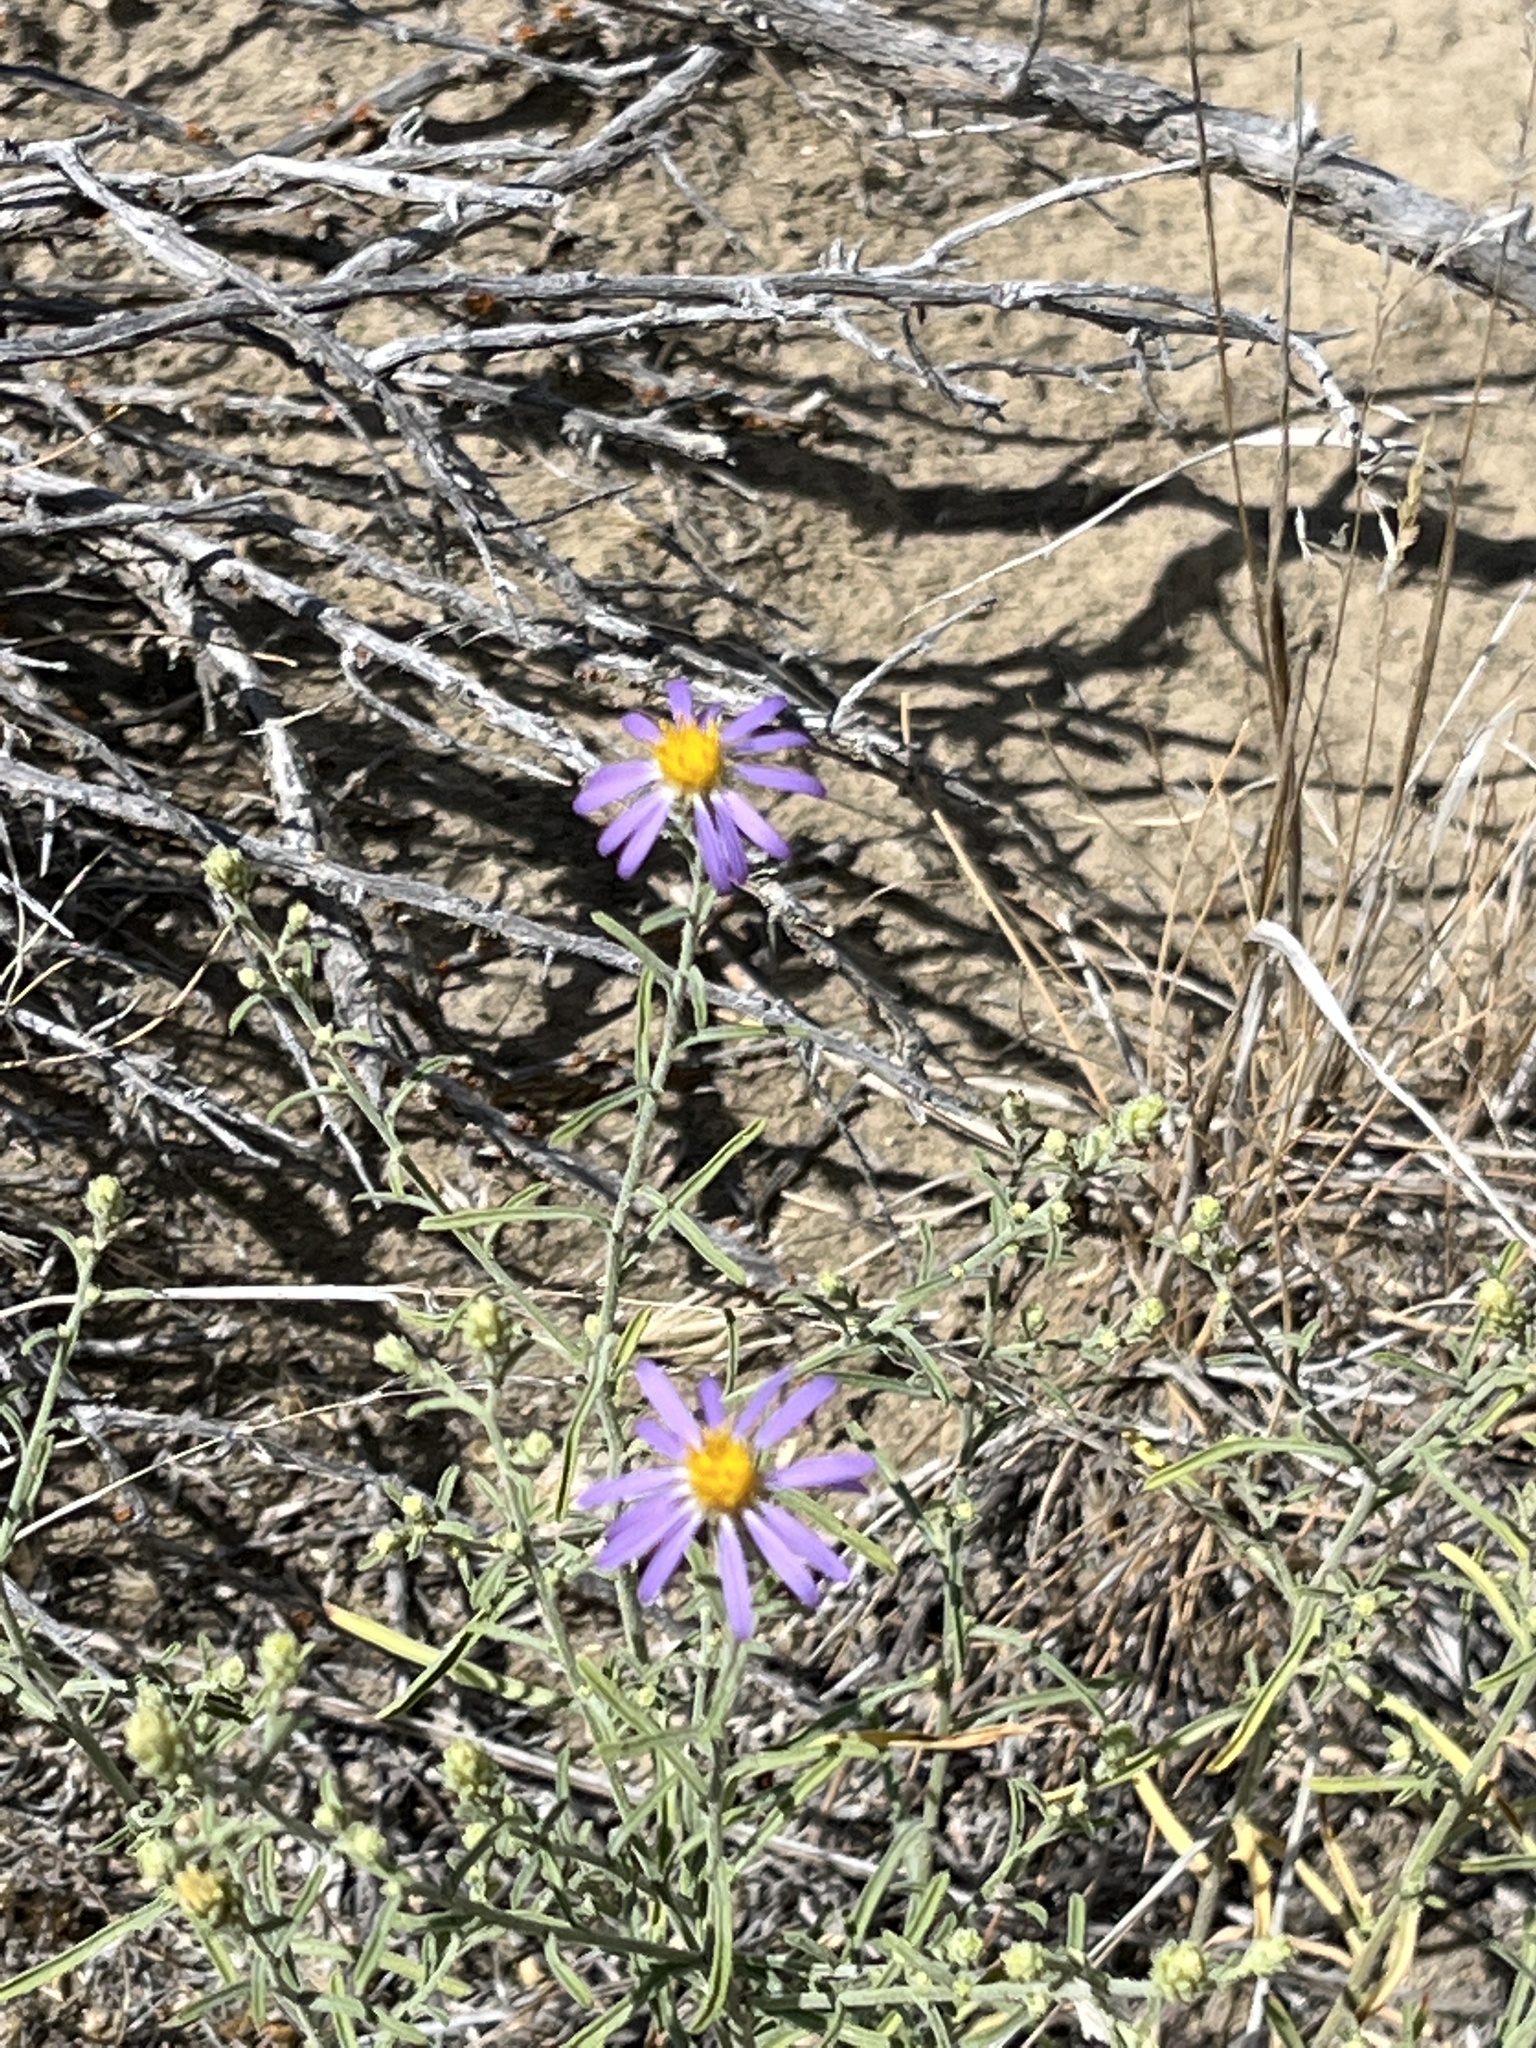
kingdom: Plantae
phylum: Tracheophyta
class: Magnoliopsida
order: Asterales
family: Asteraceae
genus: Dieteria
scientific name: Dieteria canescens
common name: Hoary-aster
